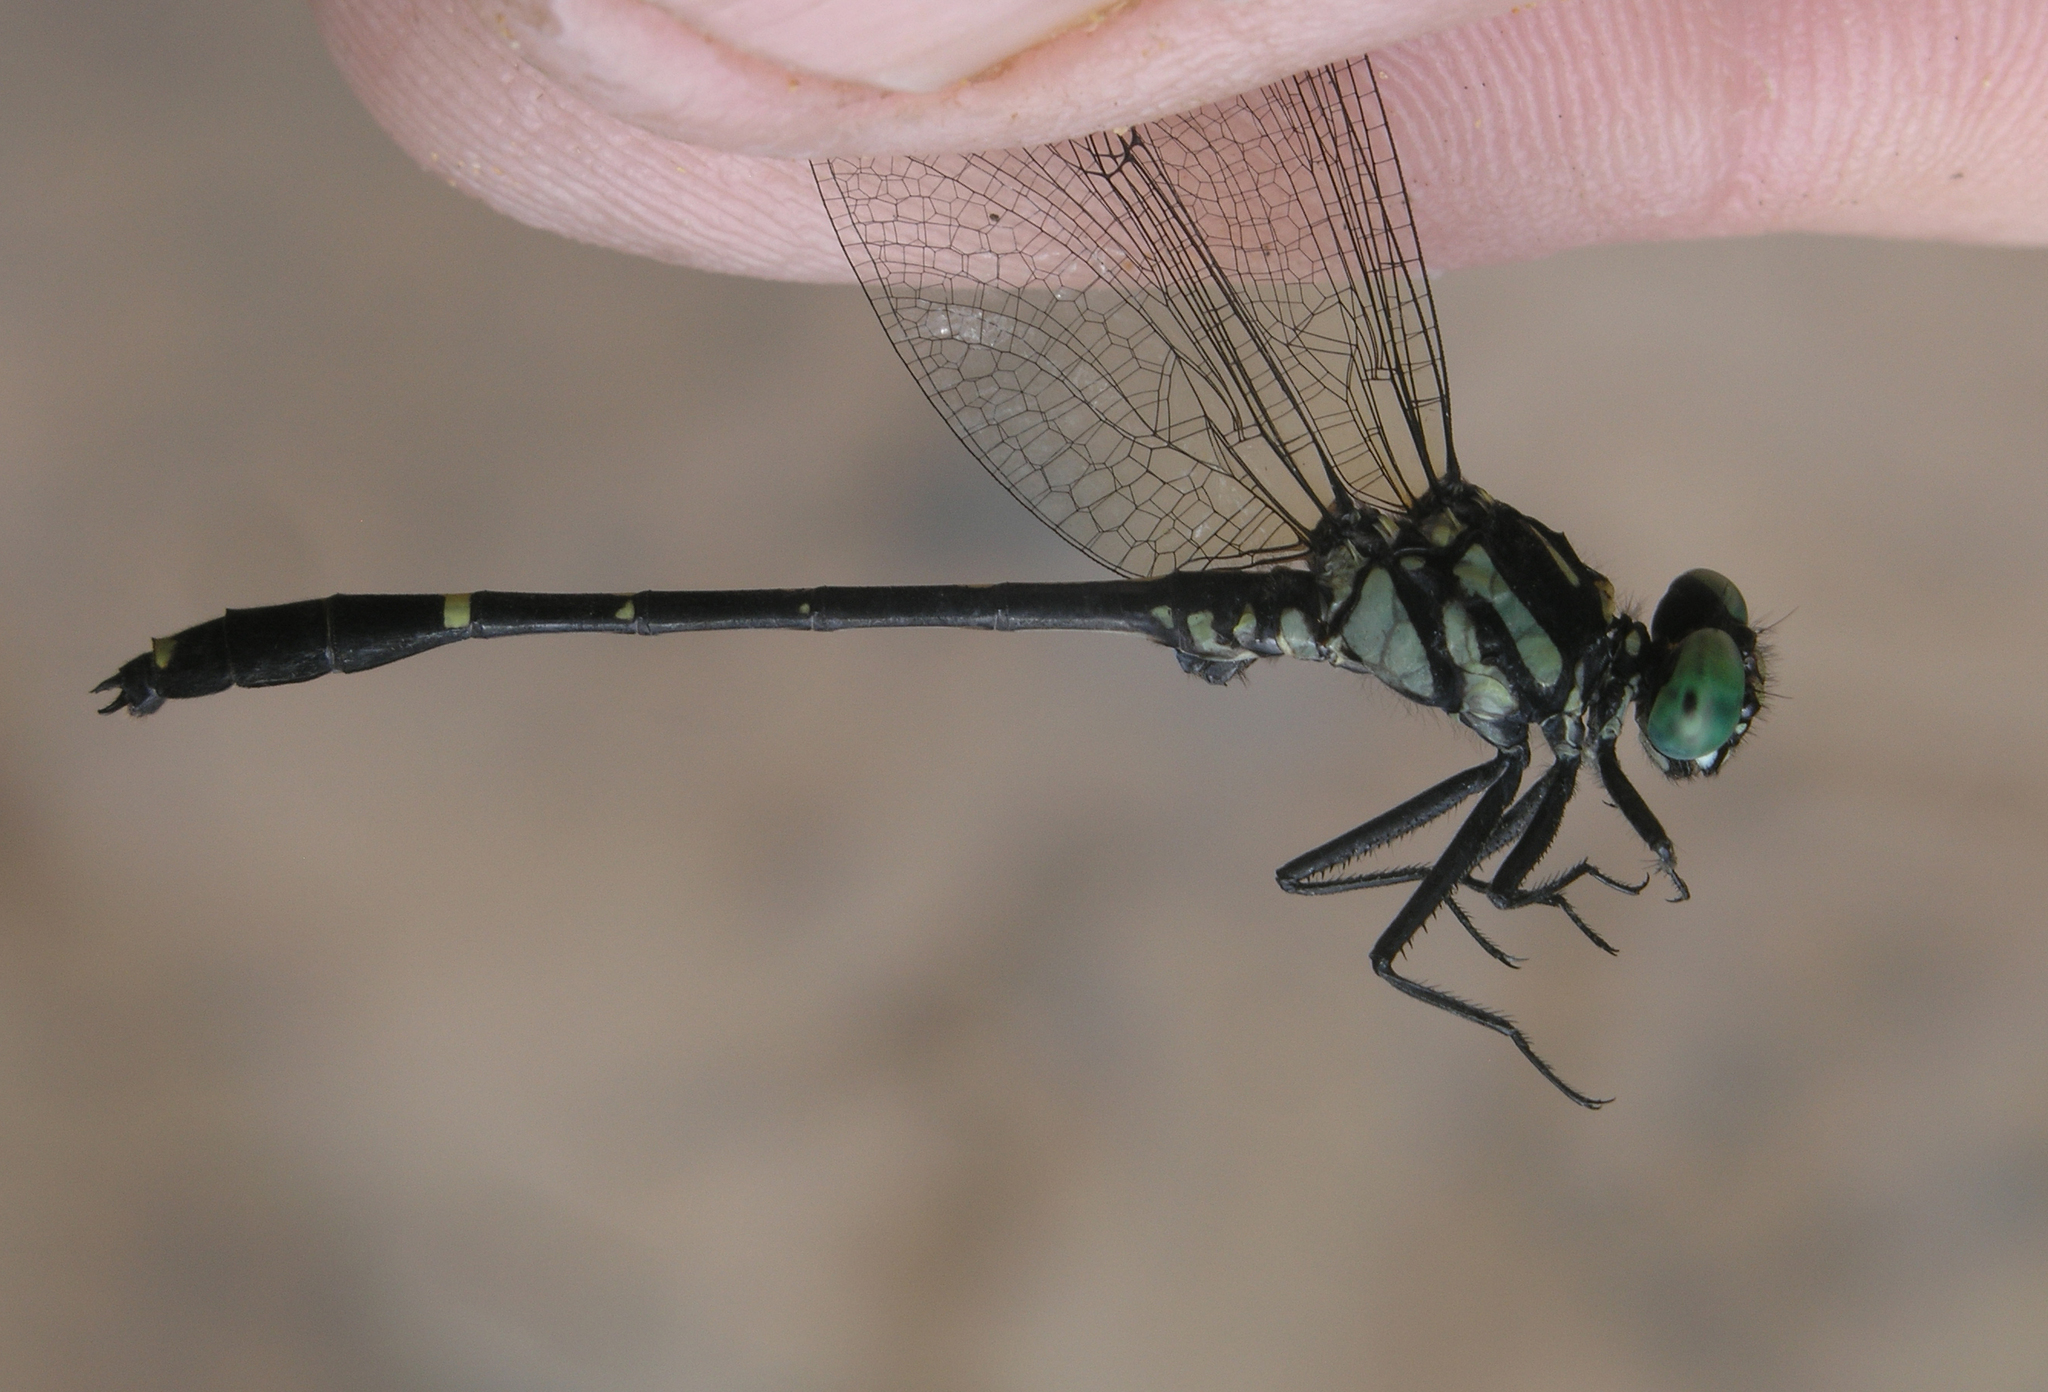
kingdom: Animalia
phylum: Arthropoda
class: Insecta
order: Odonata
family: Gomphidae
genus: Burmagomphus
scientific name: Burmagomphus divaricatus
